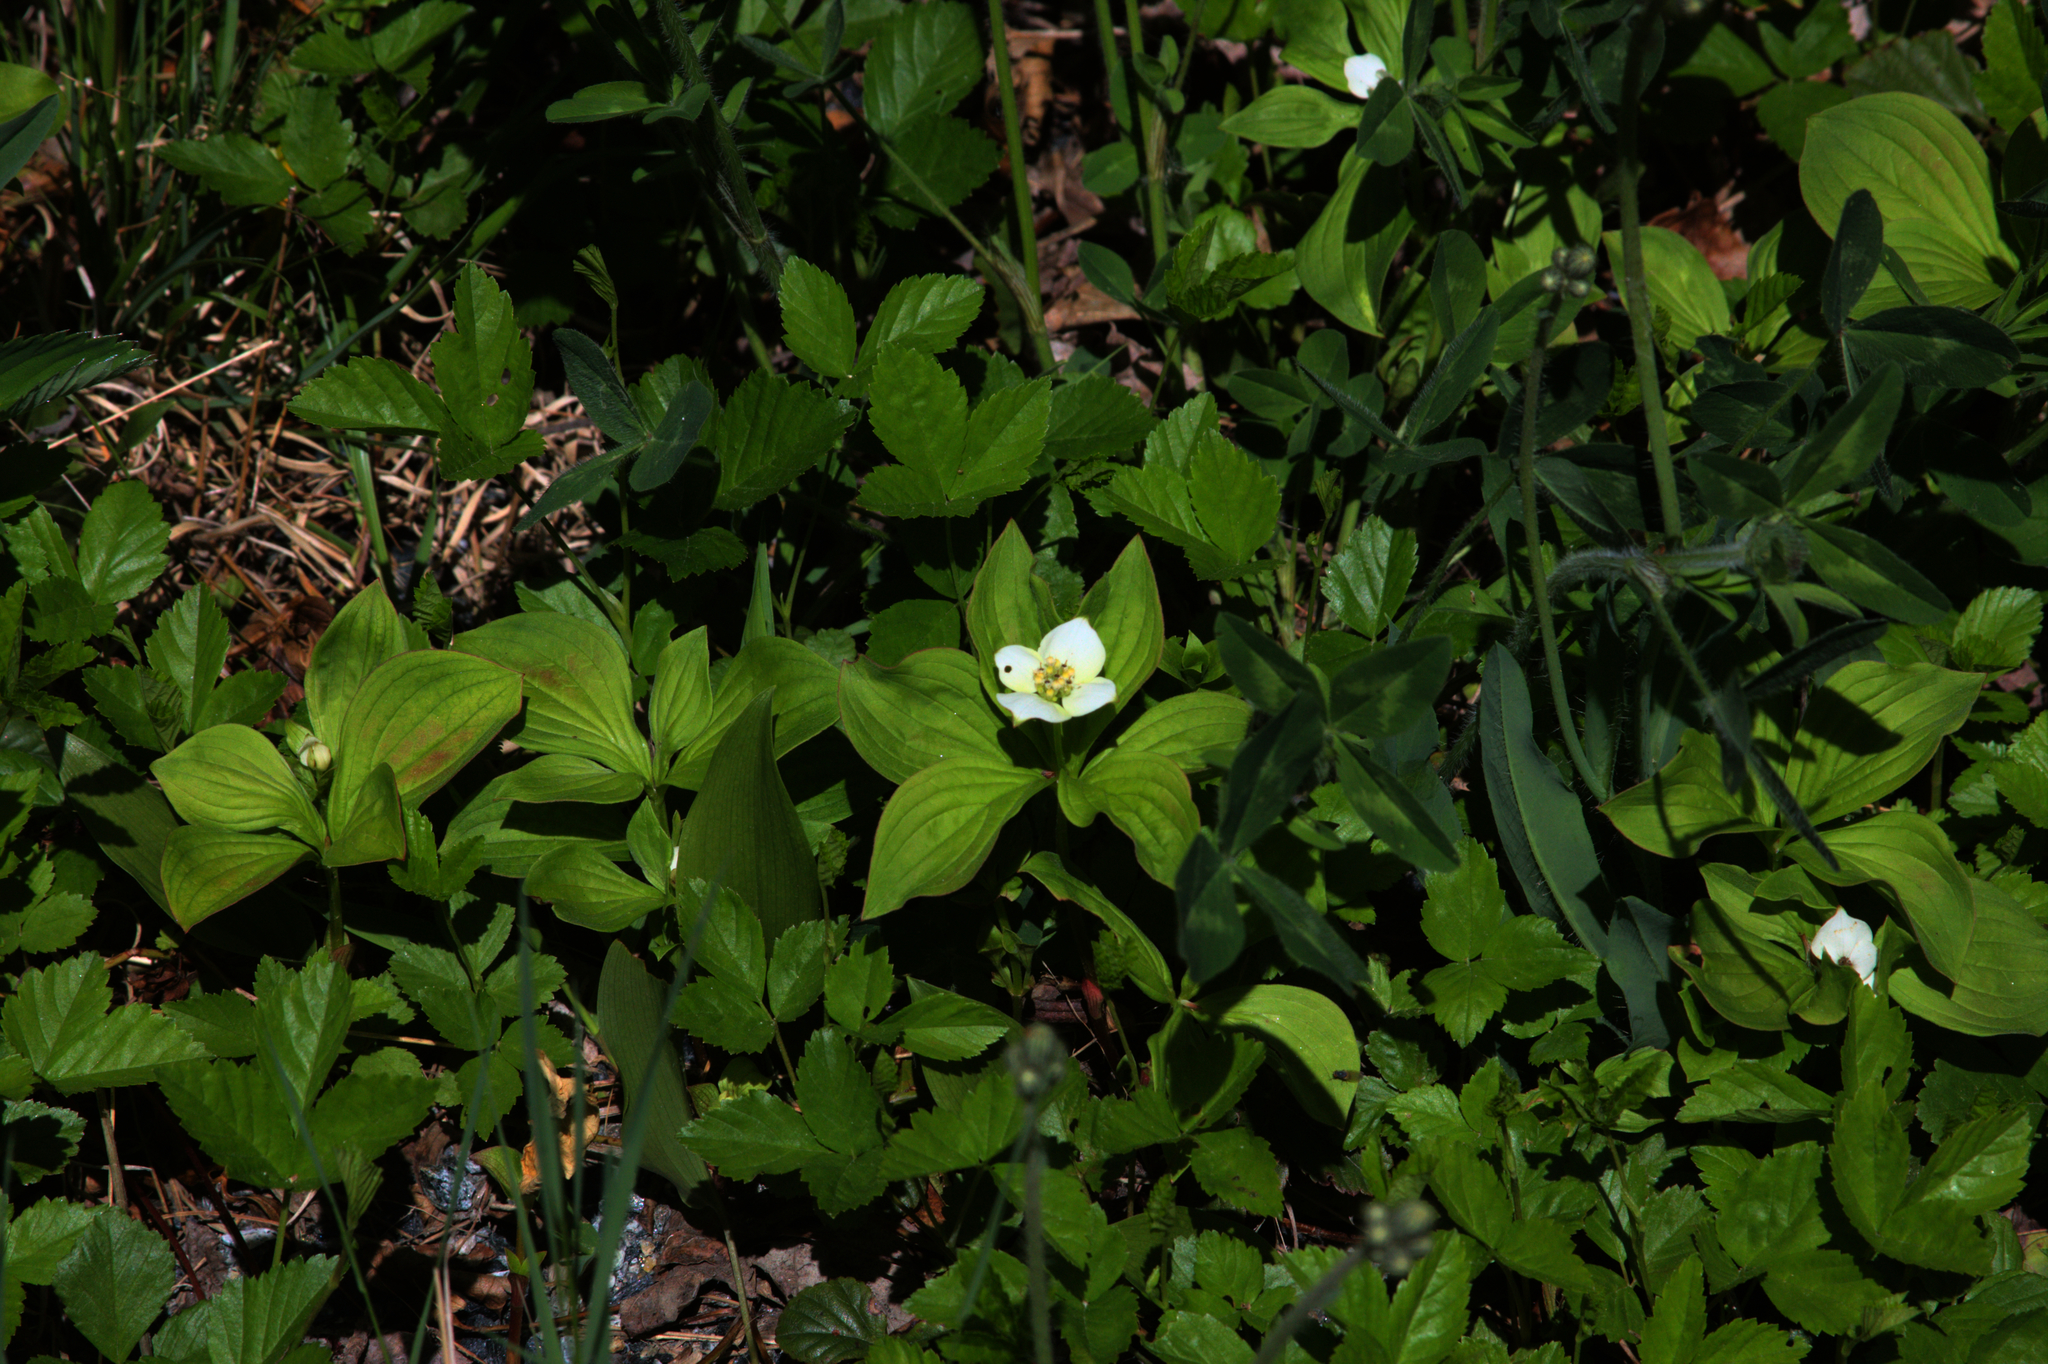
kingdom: Plantae
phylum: Tracheophyta
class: Magnoliopsida
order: Cornales
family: Cornaceae
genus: Cornus
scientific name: Cornus canadensis
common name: Creeping dogwood
